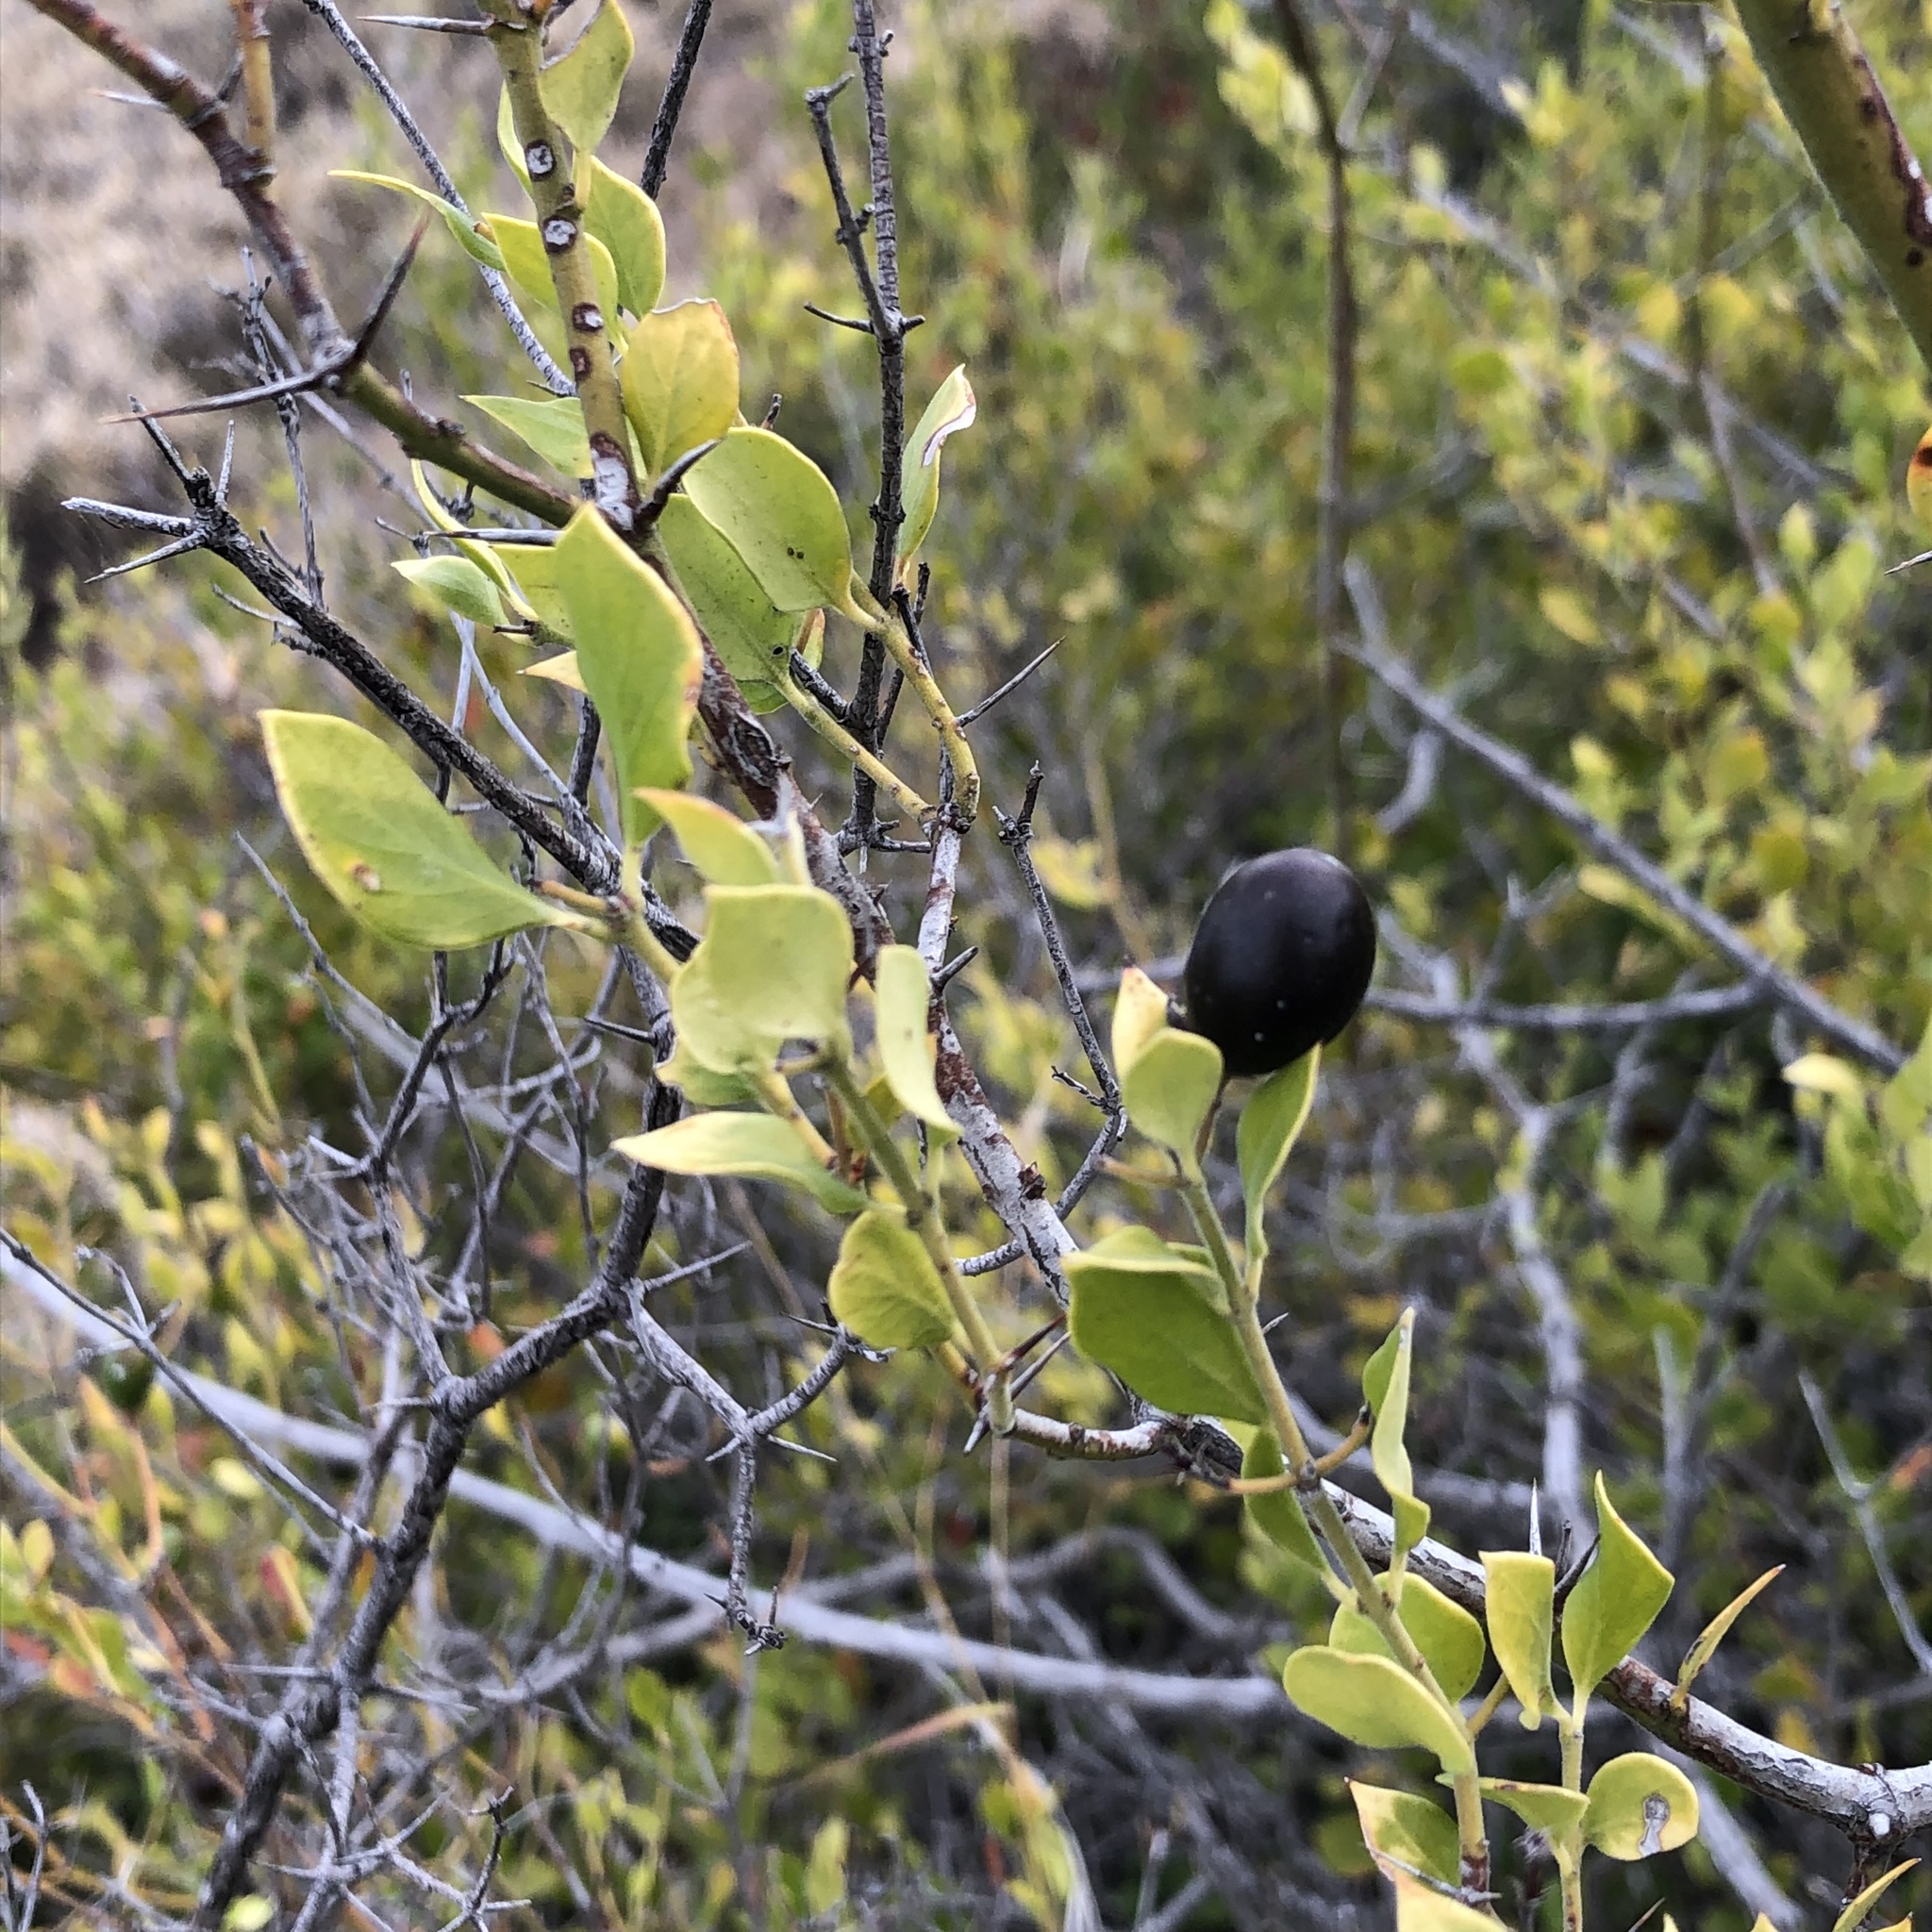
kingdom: Plantae
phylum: Tracheophyta
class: Magnoliopsida
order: Gentianales
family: Apocynaceae
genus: Carissa
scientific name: Carissa ovata
